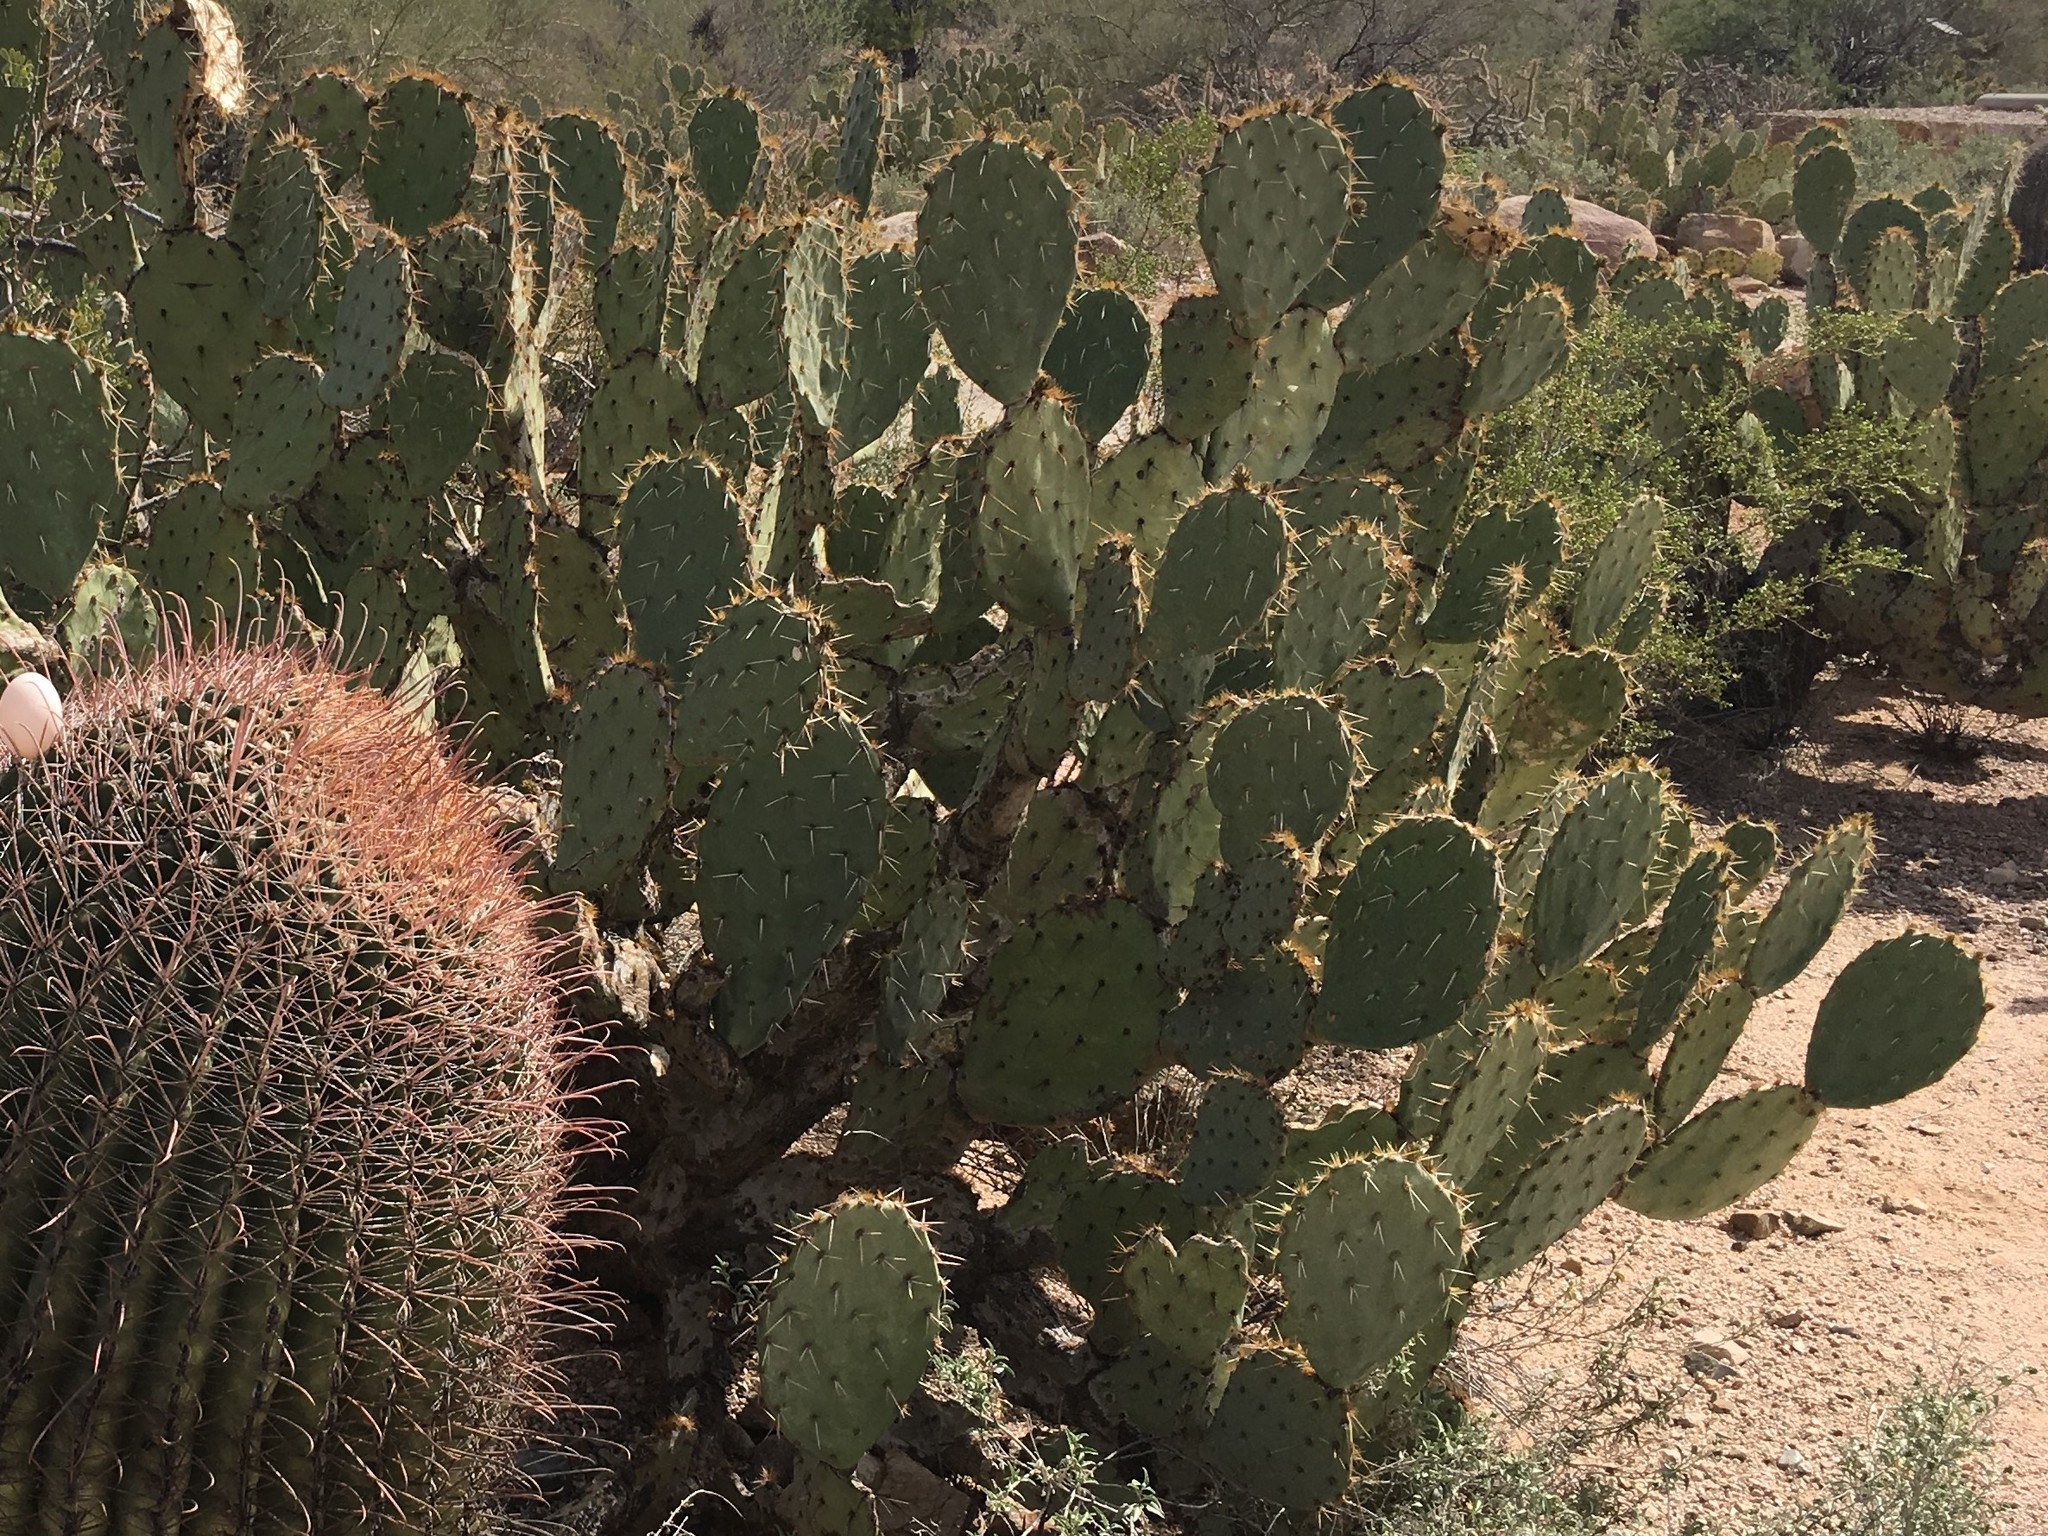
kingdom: Plantae
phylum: Tracheophyta
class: Magnoliopsida
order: Caryophyllales
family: Cactaceae
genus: Opuntia
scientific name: Opuntia engelmannii
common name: Cactus-apple
